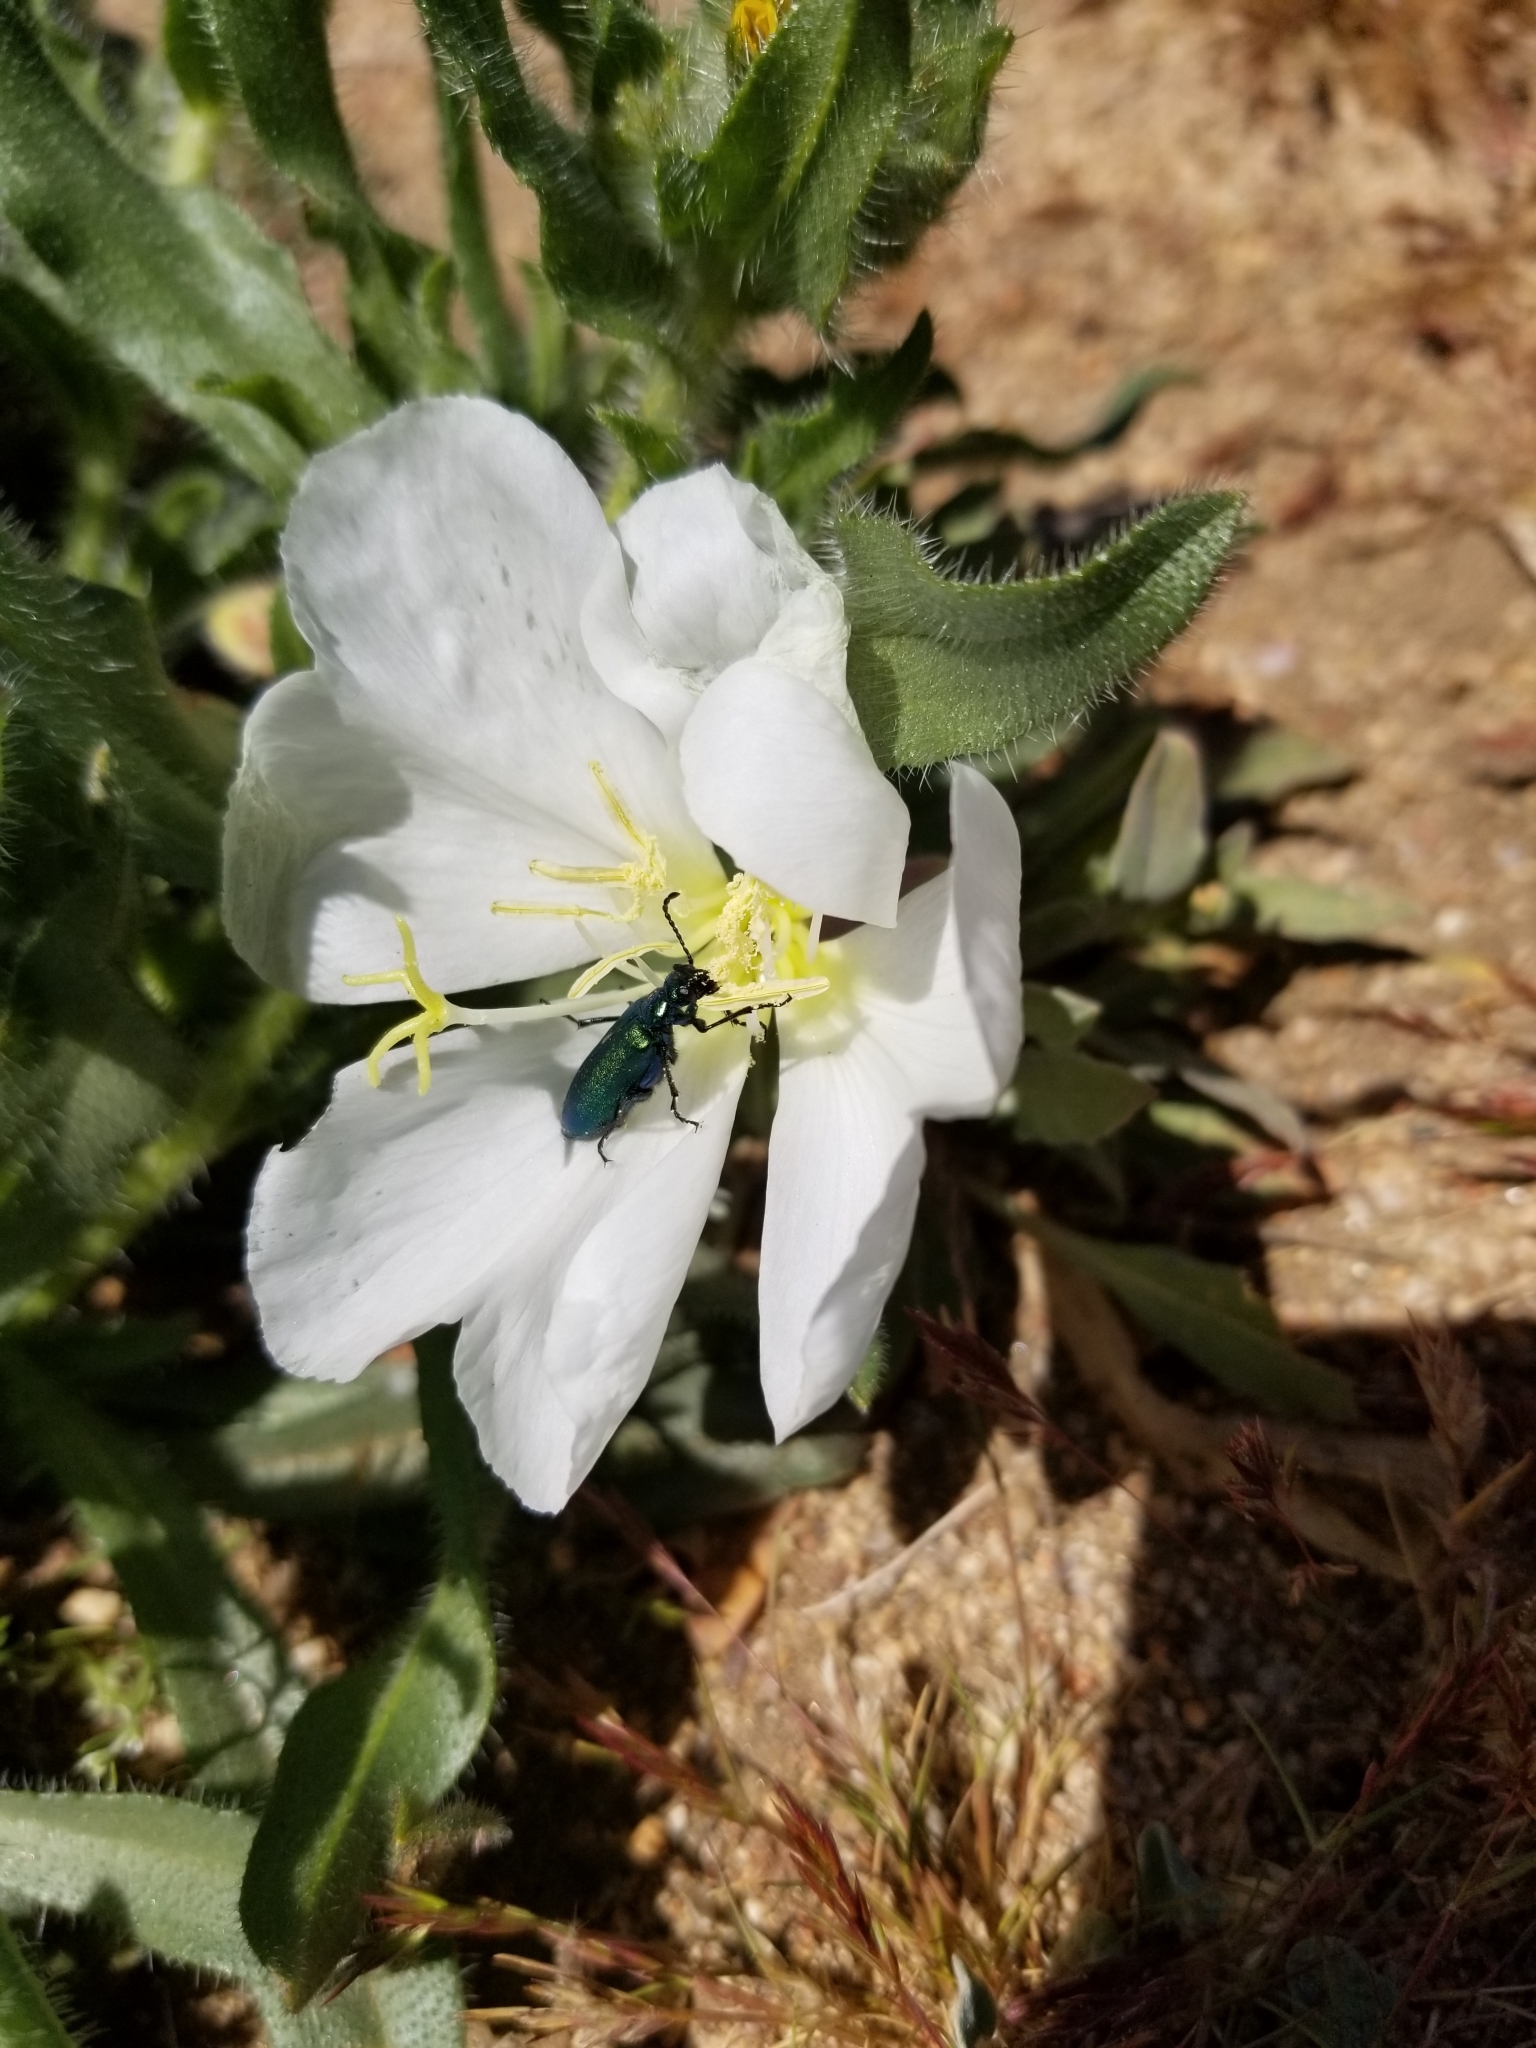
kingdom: Animalia
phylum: Arthropoda
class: Insecta
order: Coleoptera
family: Meloidae
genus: Lytta
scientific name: Lytta stygica
